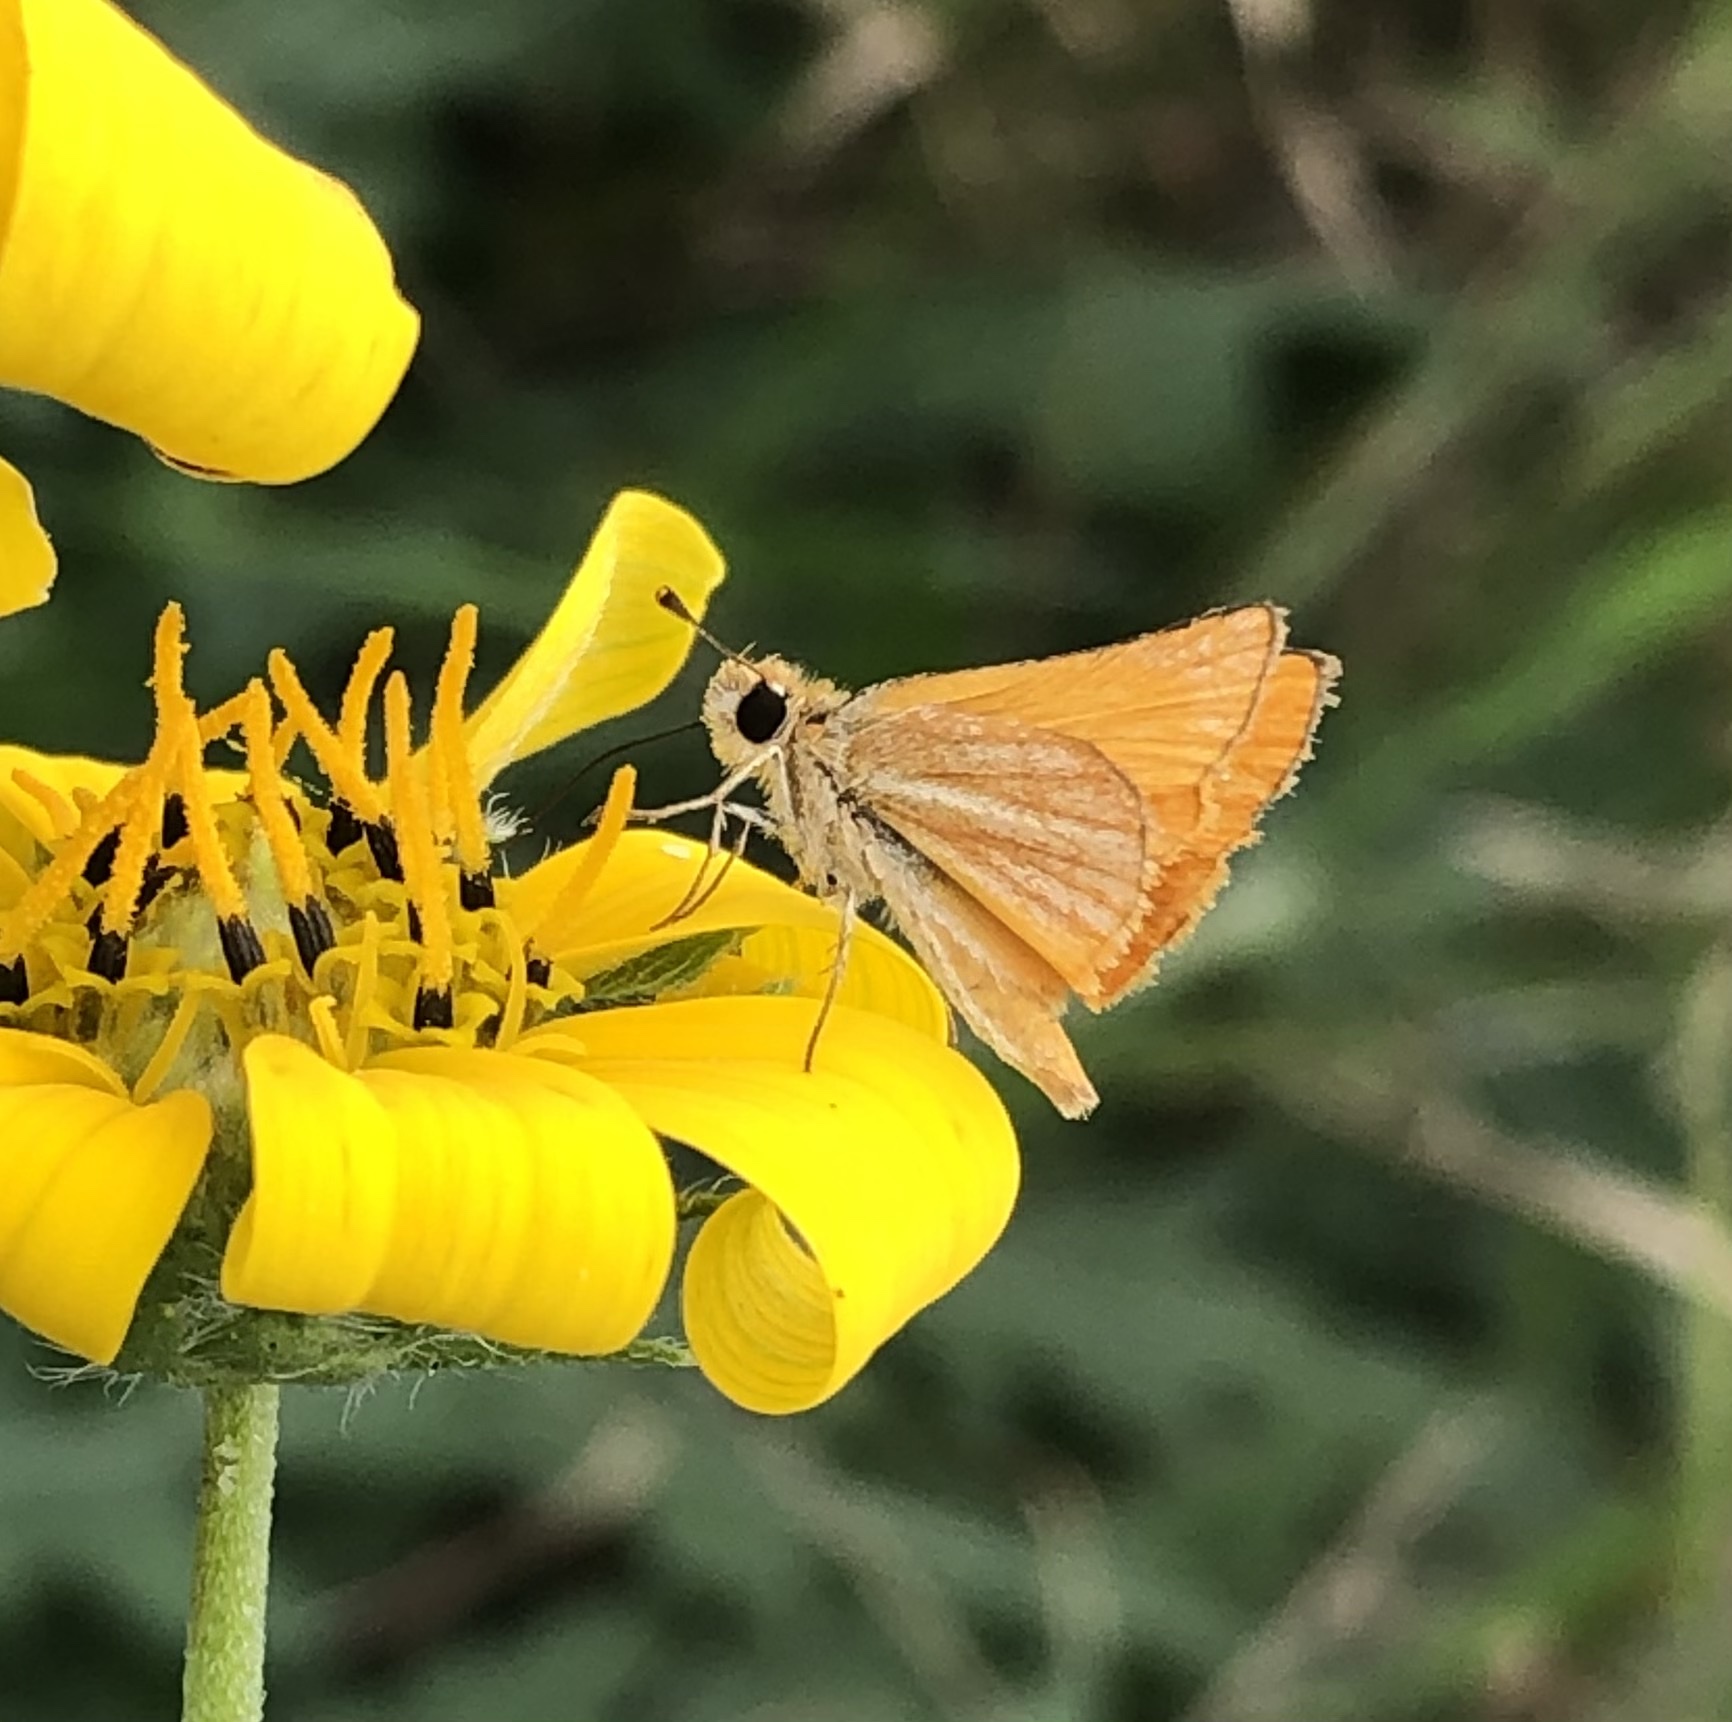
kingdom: Animalia
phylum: Arthropoda
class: Insecta
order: Lepidoptera
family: Hesperiidae
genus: Copaeodes
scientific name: Copaeodes minima
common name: Southern skipperling
